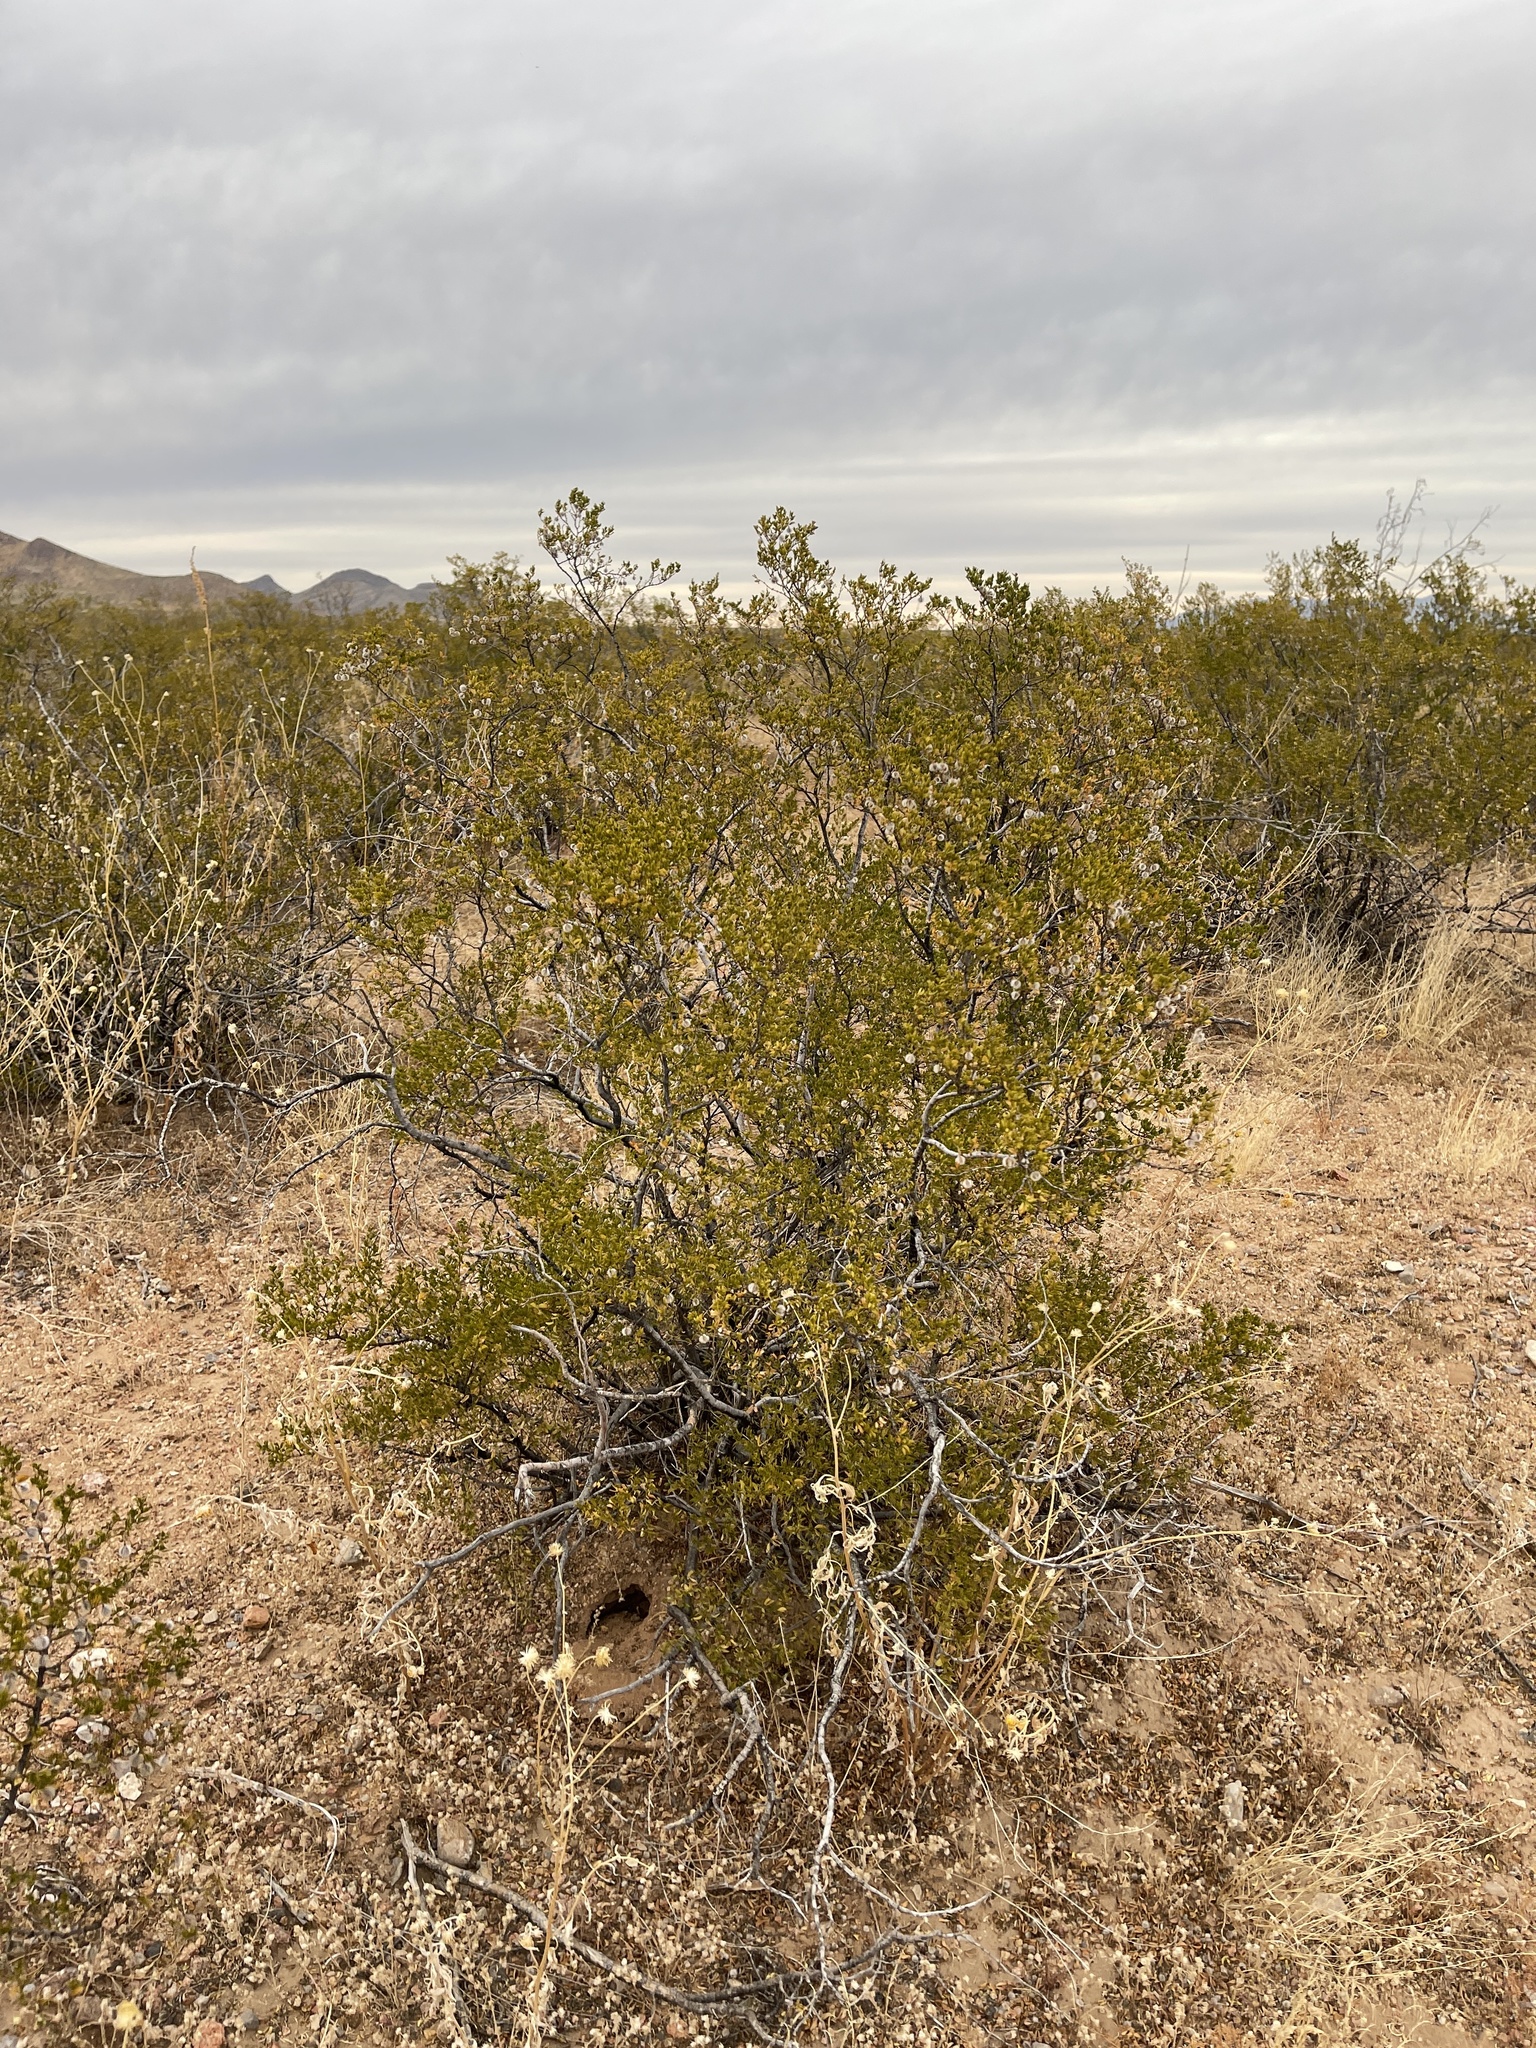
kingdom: Plantae
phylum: Tracheophyta
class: Magnoliopsida
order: Zygophyllales
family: Zygophyllaceae
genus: Larrea
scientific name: Larrea tridentata
